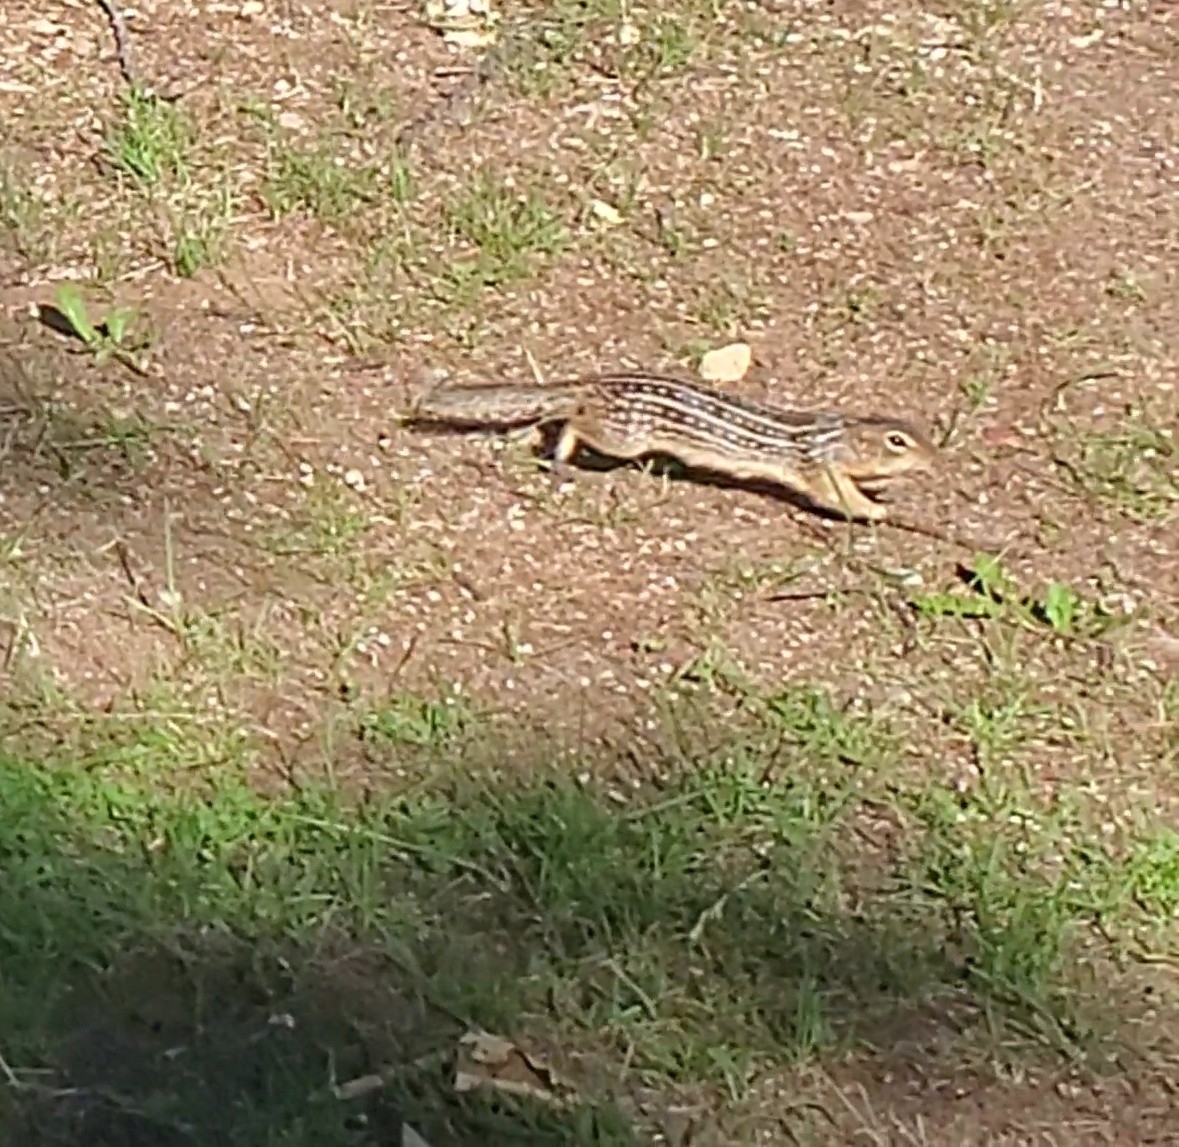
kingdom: Animalia
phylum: Chordata
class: Mammalia
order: Rodentia
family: Sciuridae
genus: Ictidomys
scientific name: Ictidomys tridecemlineatus
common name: Thirteen-lined ground squirrel
